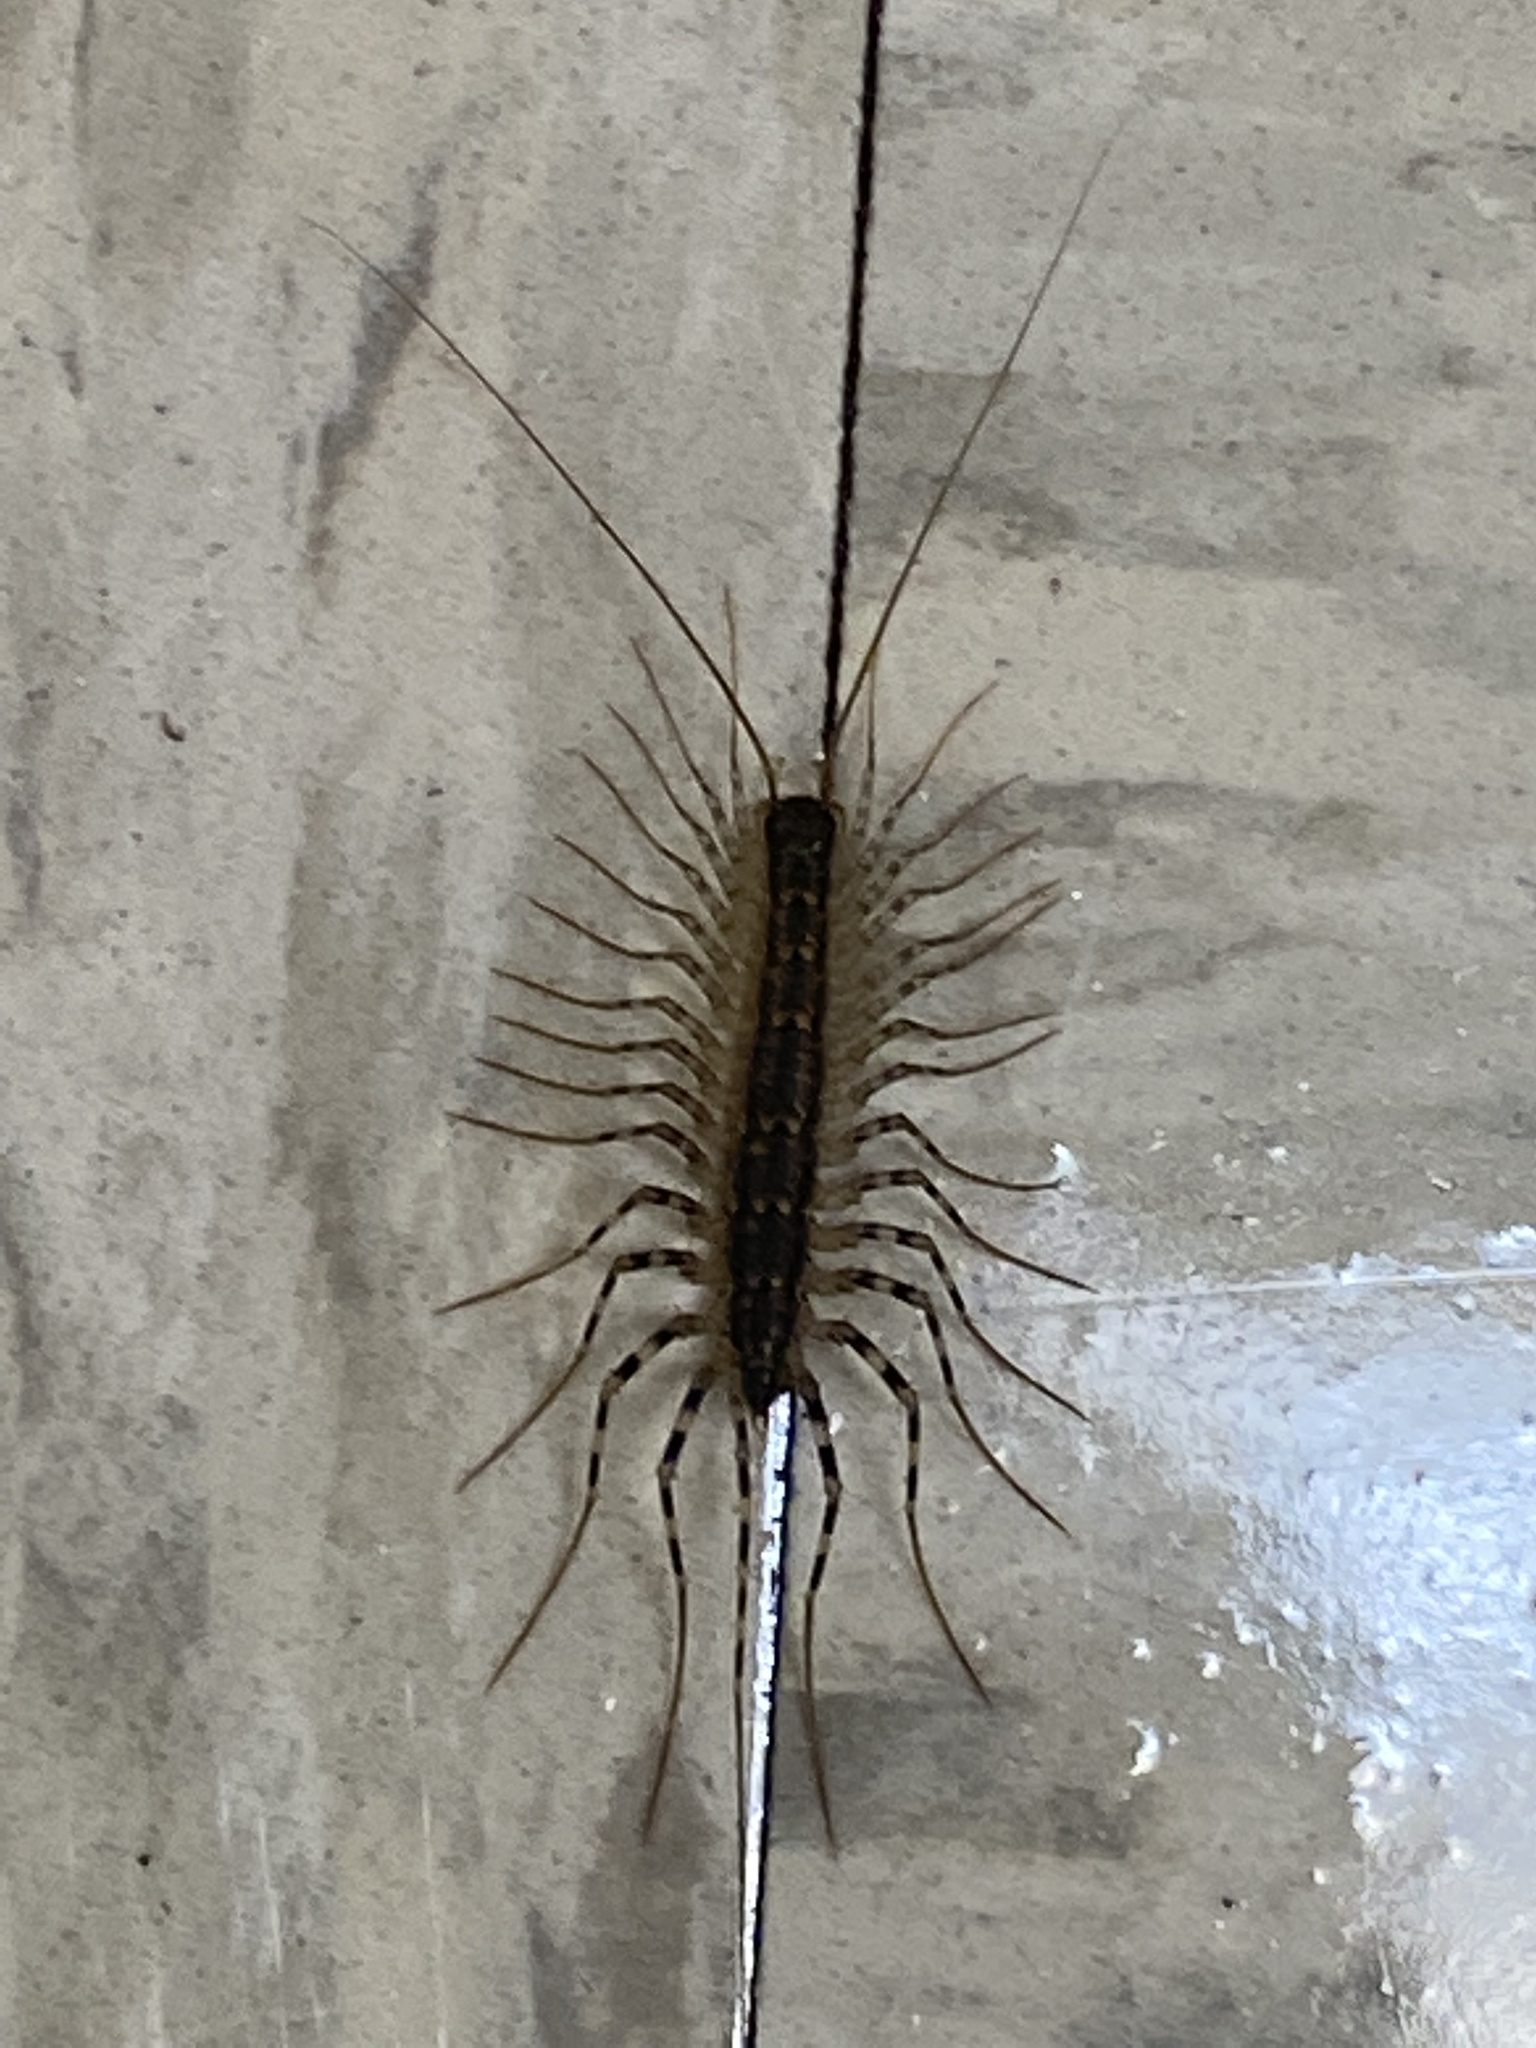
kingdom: Animalia
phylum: Arthropoda
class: Chilopoda
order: Scutigeromorpha
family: Scutigeridae
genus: Scutigera
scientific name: Scutigera coleoptrata
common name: House centipede
